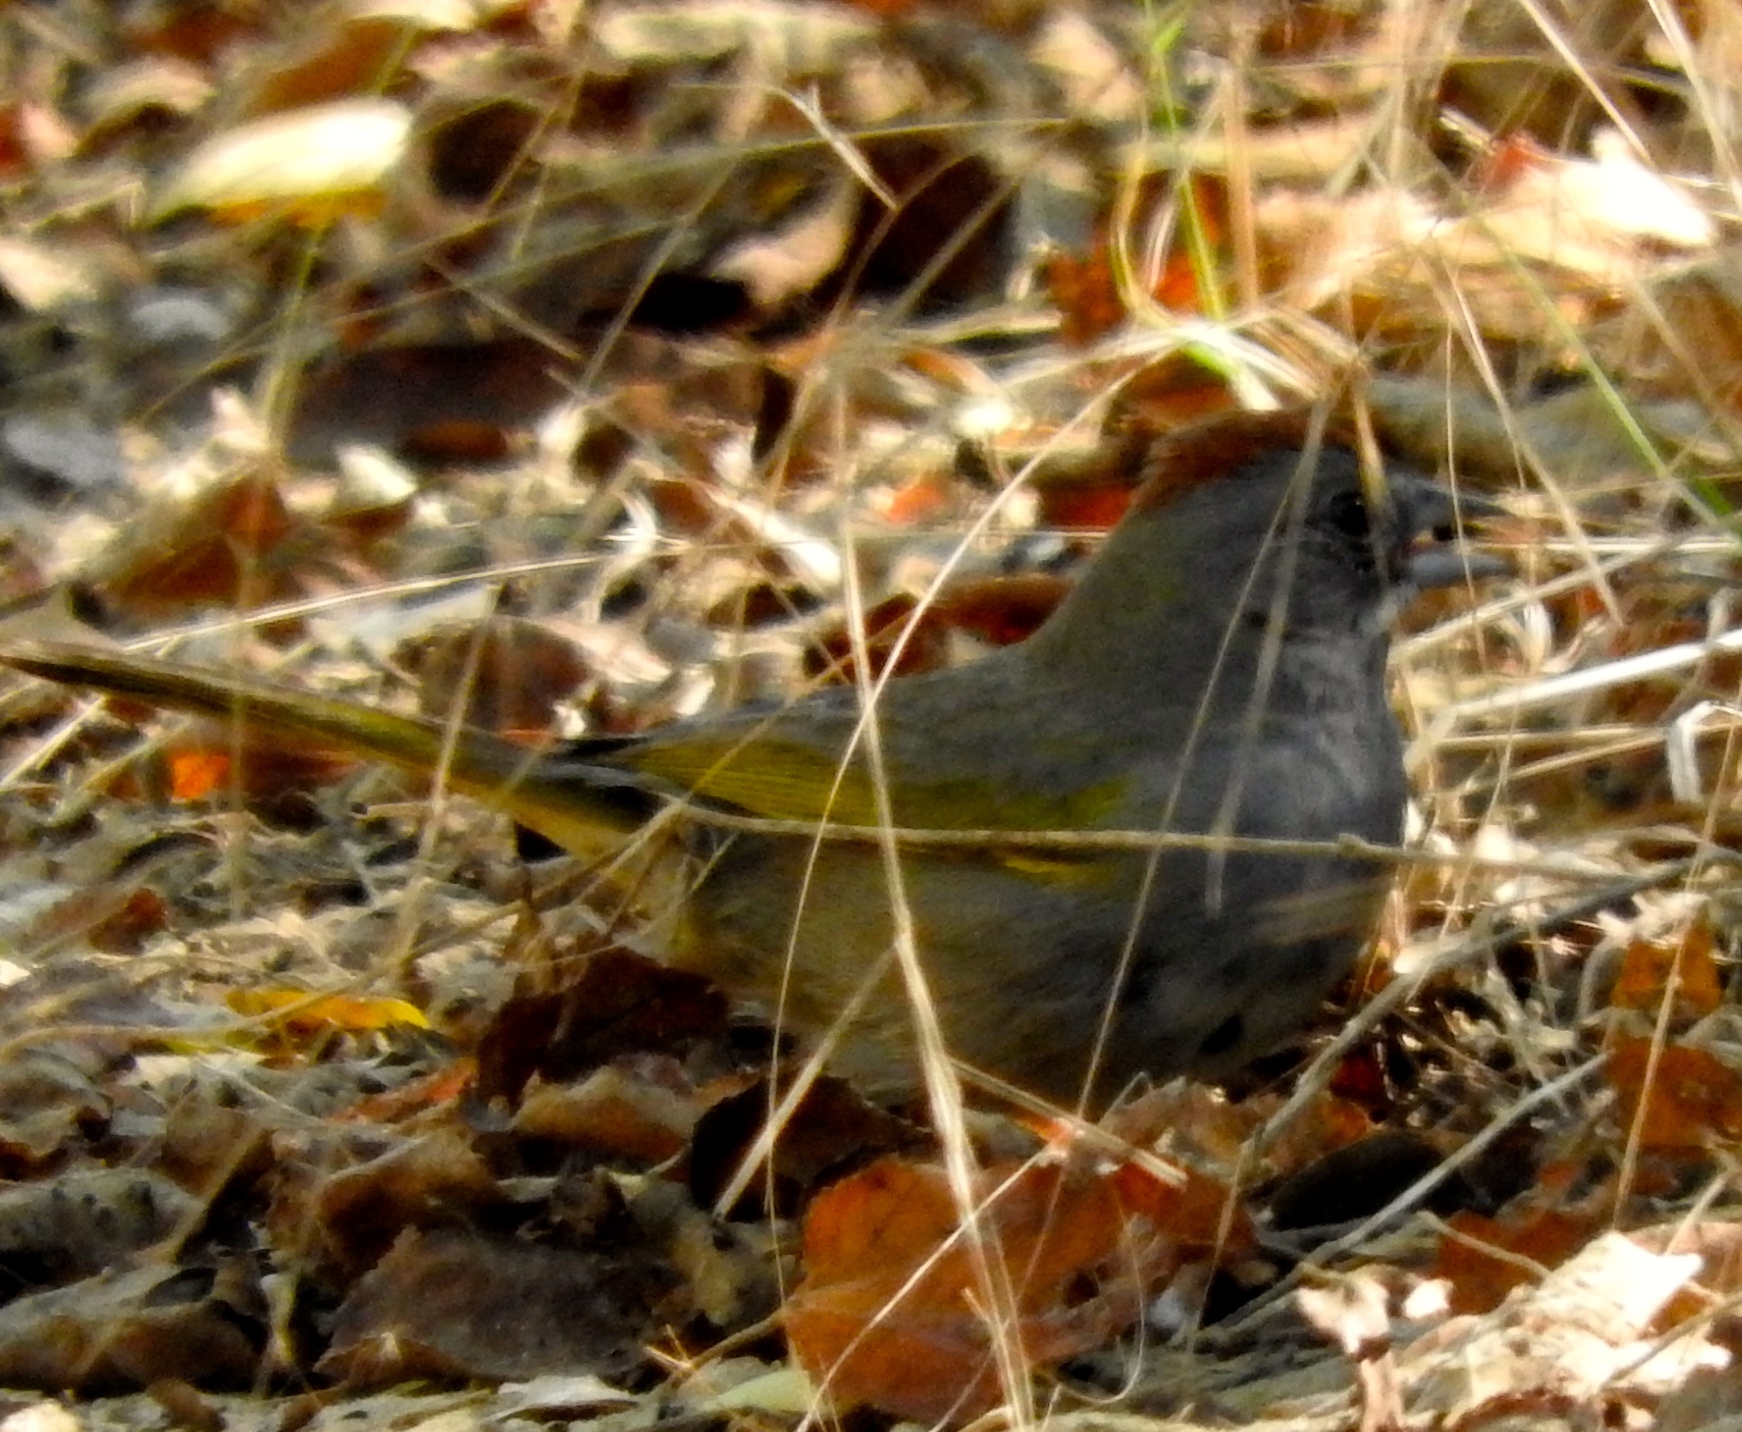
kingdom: Animalia
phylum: Chordata
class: Aves
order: Passeriformes
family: Passerellidae
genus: Pipilo
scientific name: Pipilo chlorurus
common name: Green-tailed towhee
